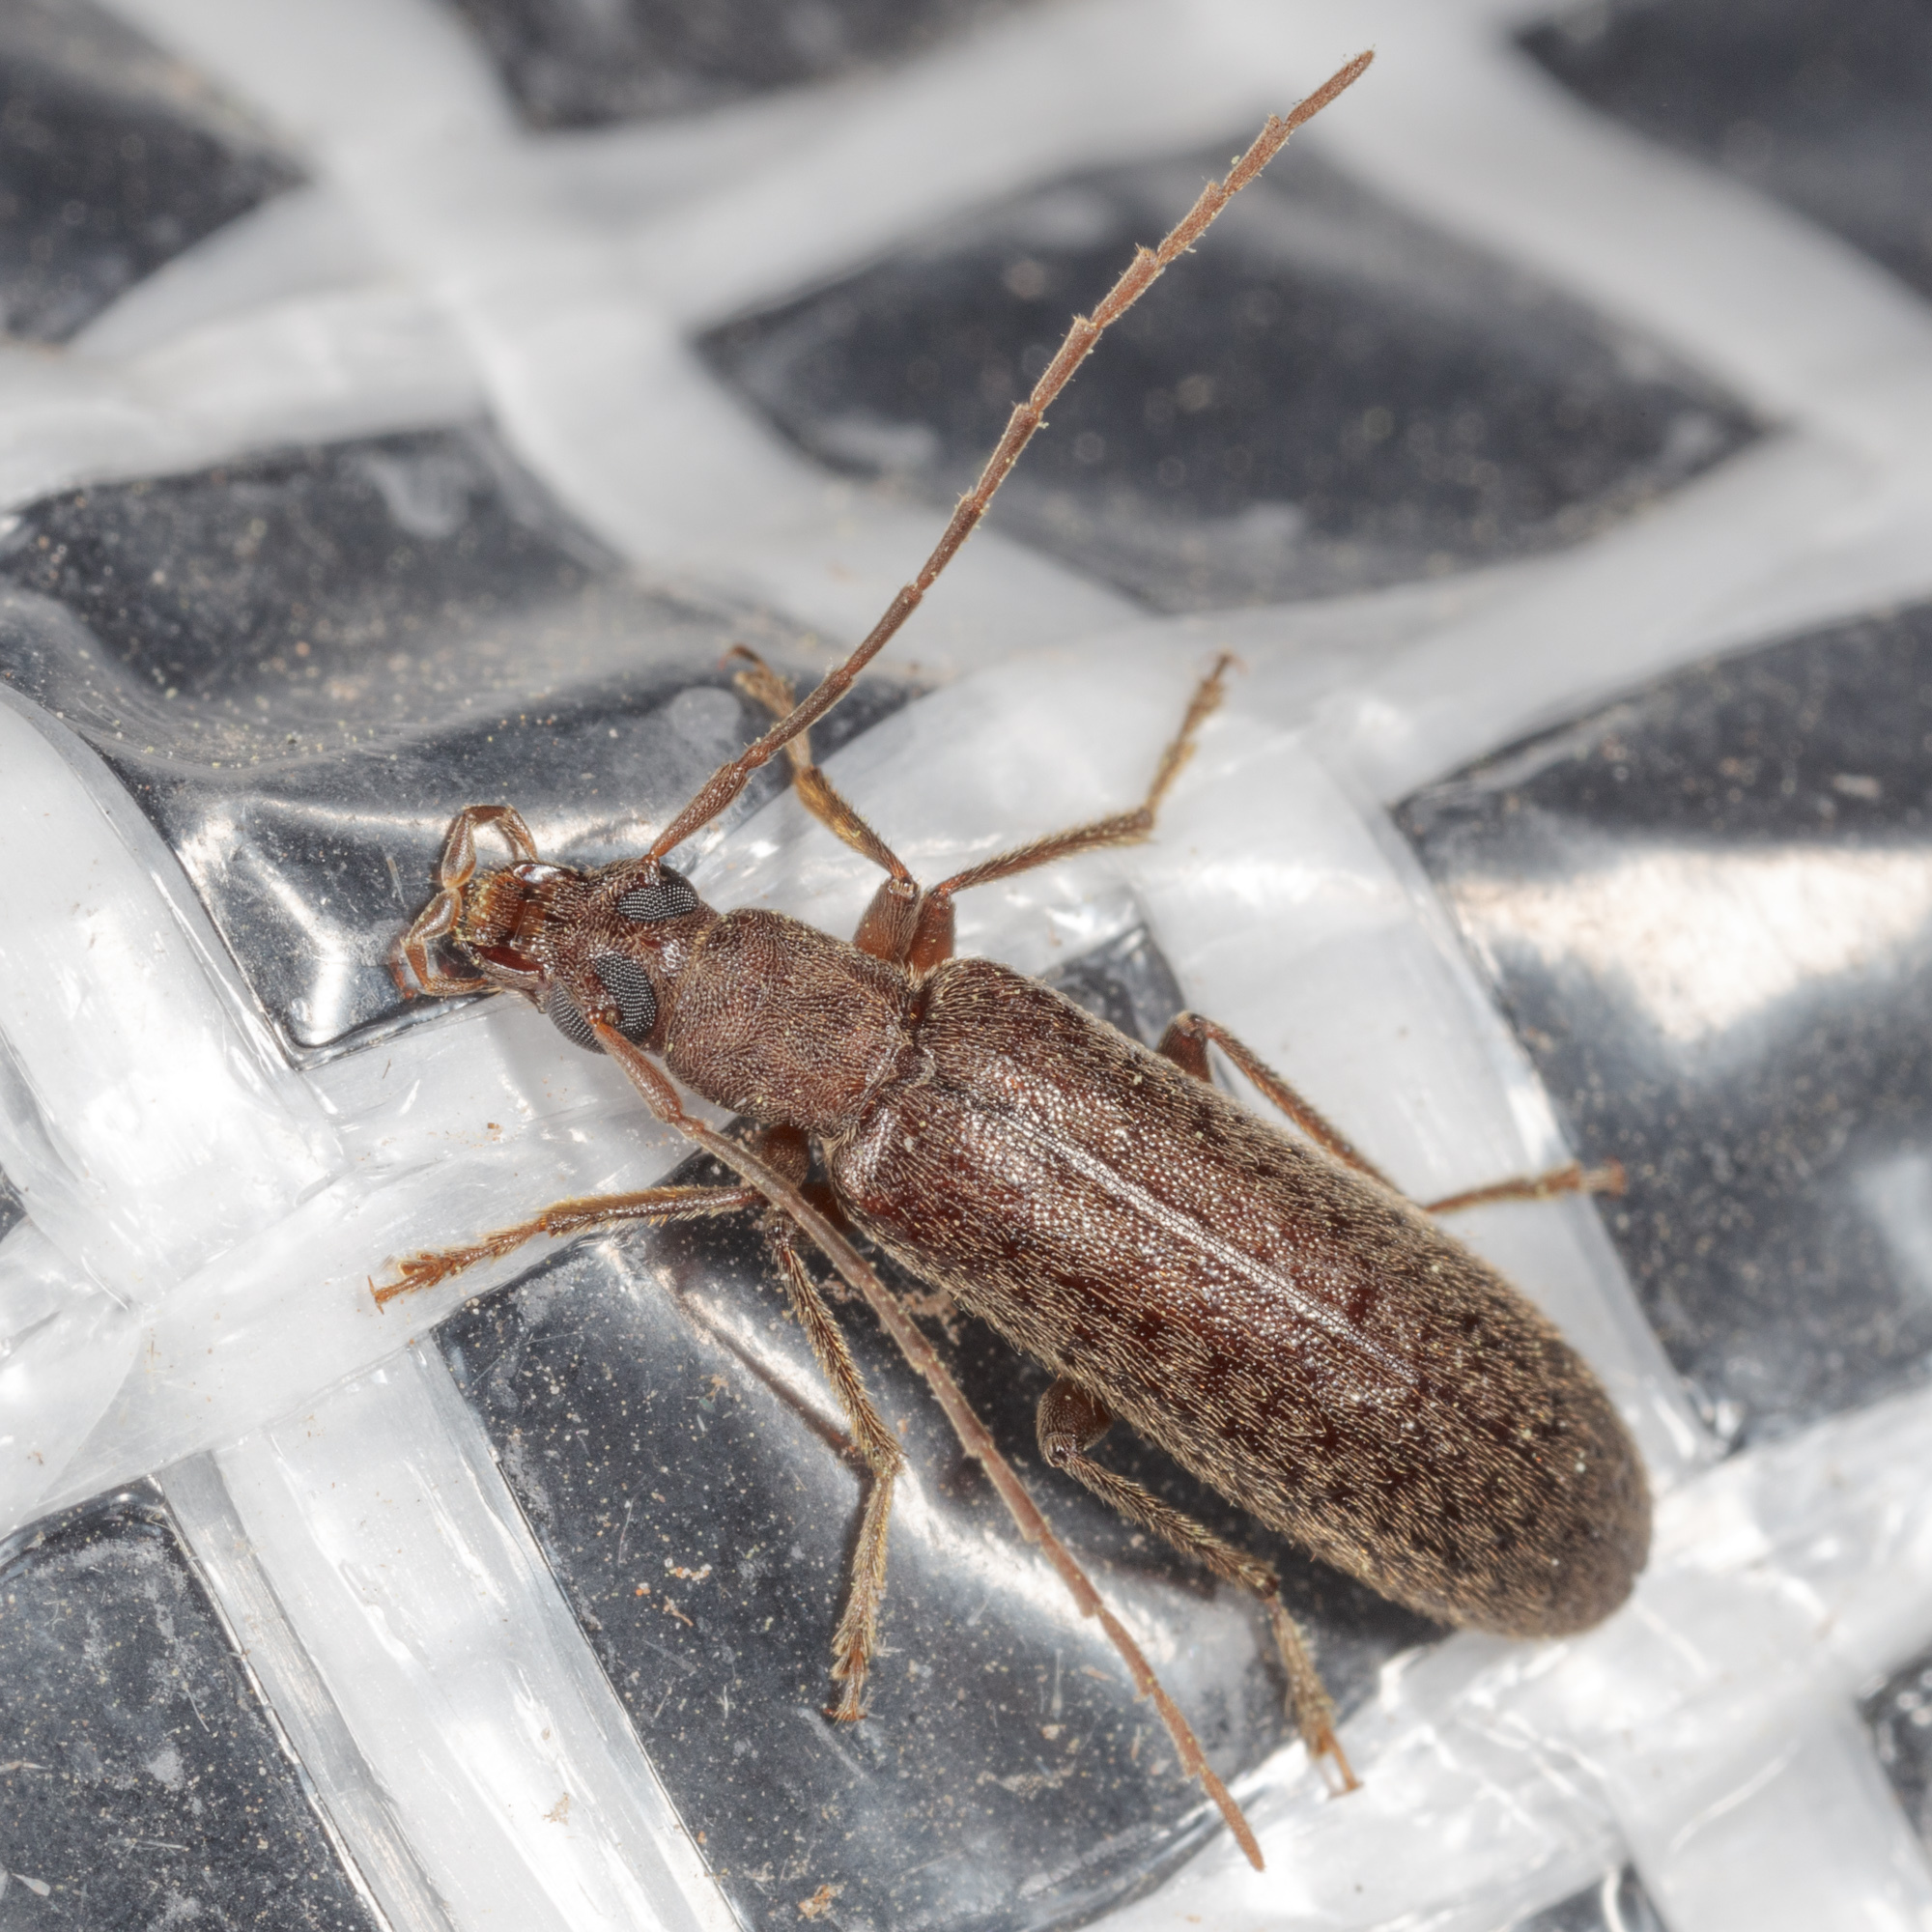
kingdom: Animalia
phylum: Arthropoda
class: Insecta
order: Coleoptera
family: Oedemeridae
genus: Sparedrus
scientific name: Sparedrus aspersus
